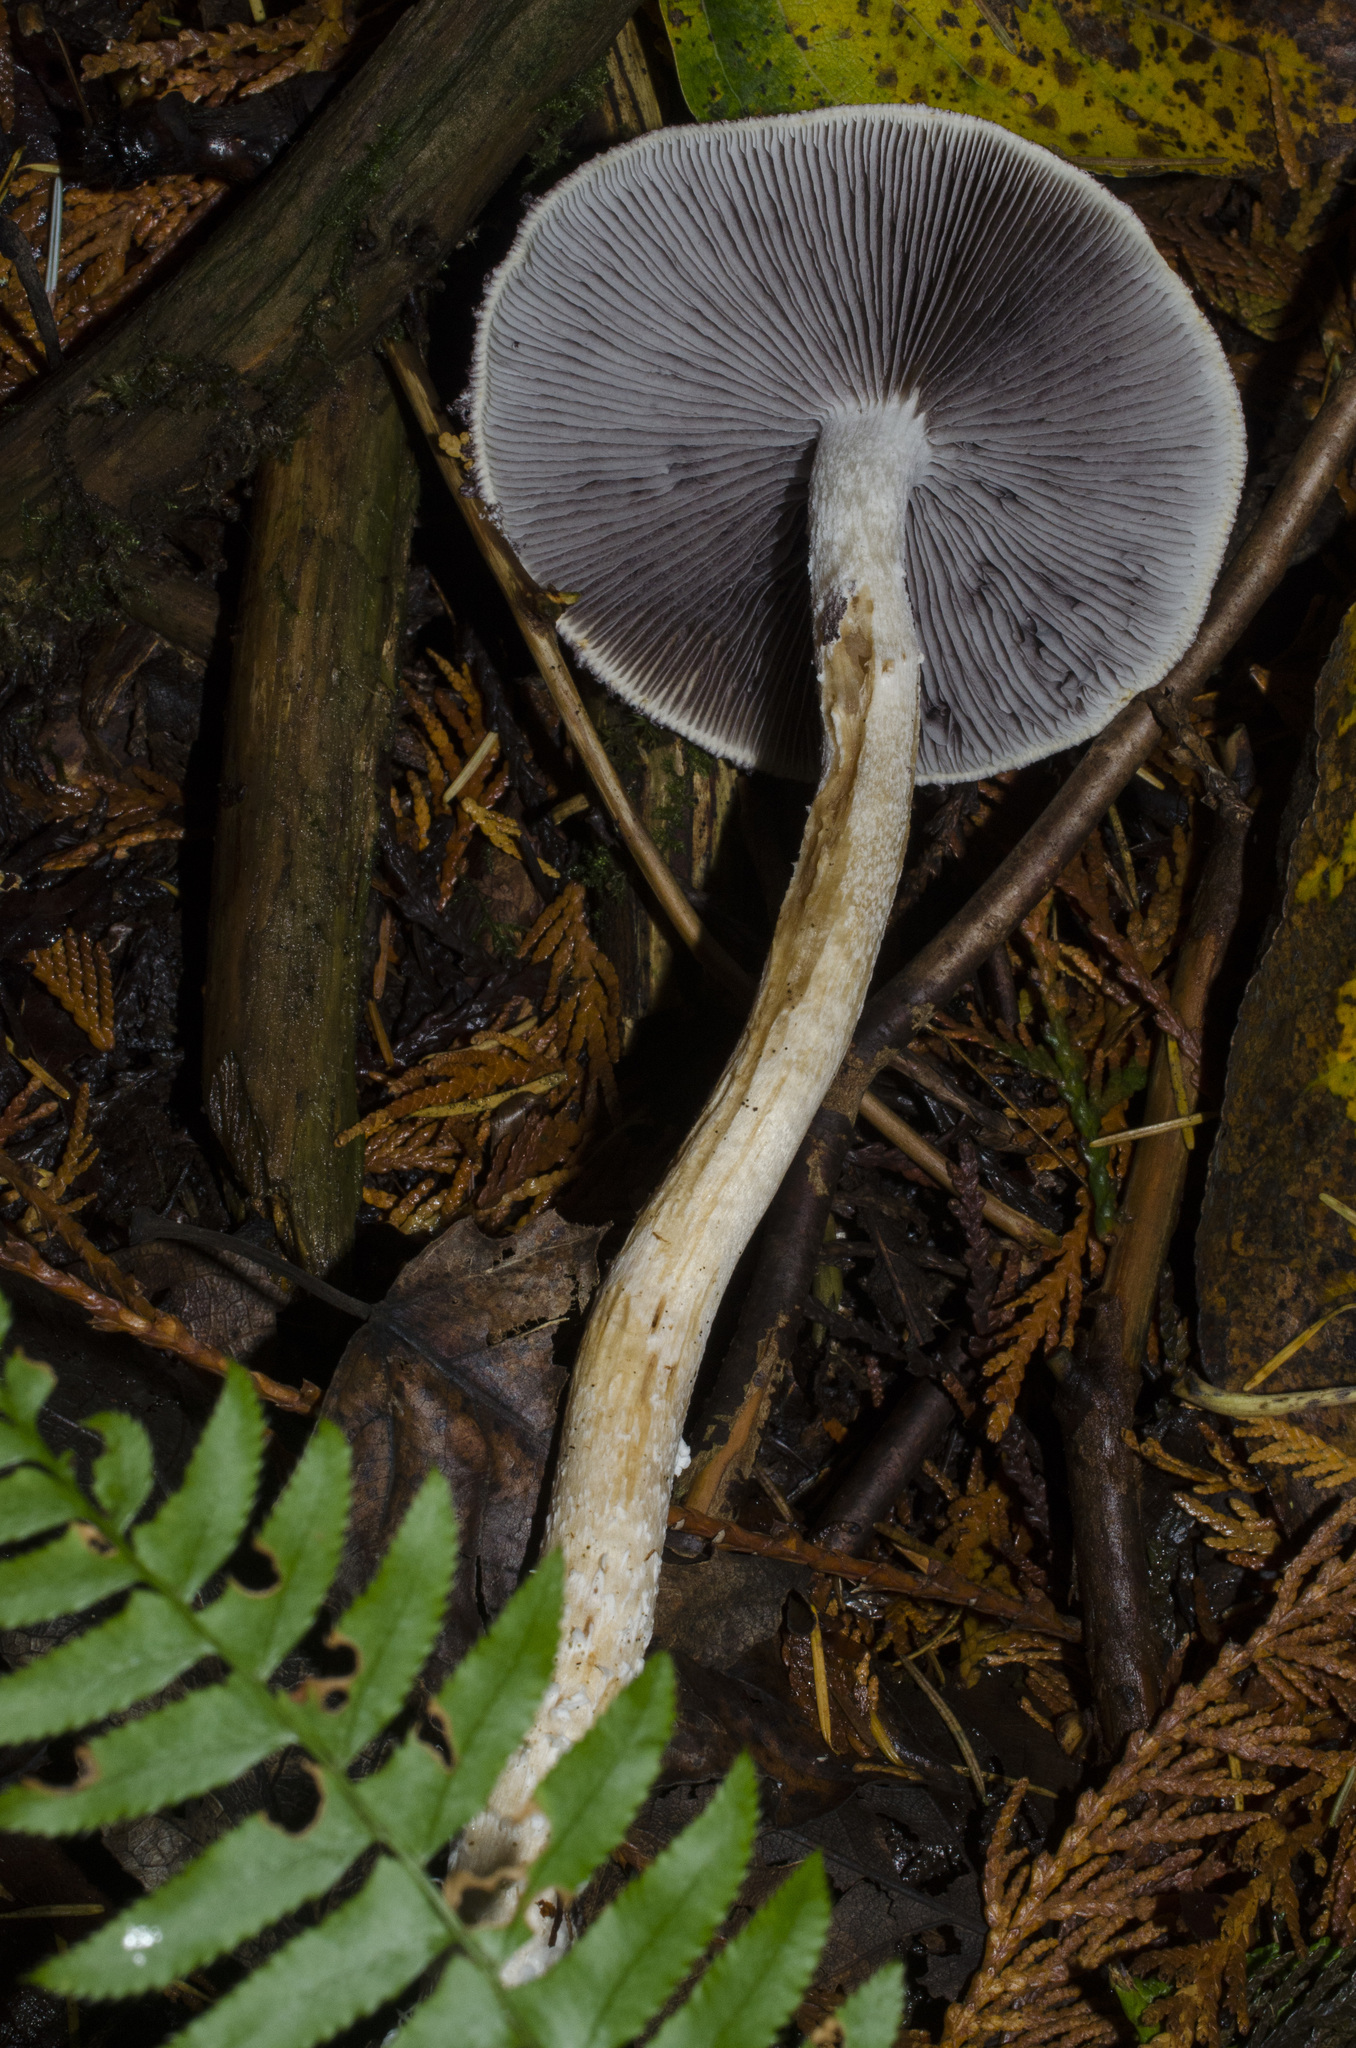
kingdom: Fungi
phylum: Basidiomycota
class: Agaricomycetes
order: Agaricales
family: Strophariaceae
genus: Stropharia
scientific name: Stropharia ambigua
